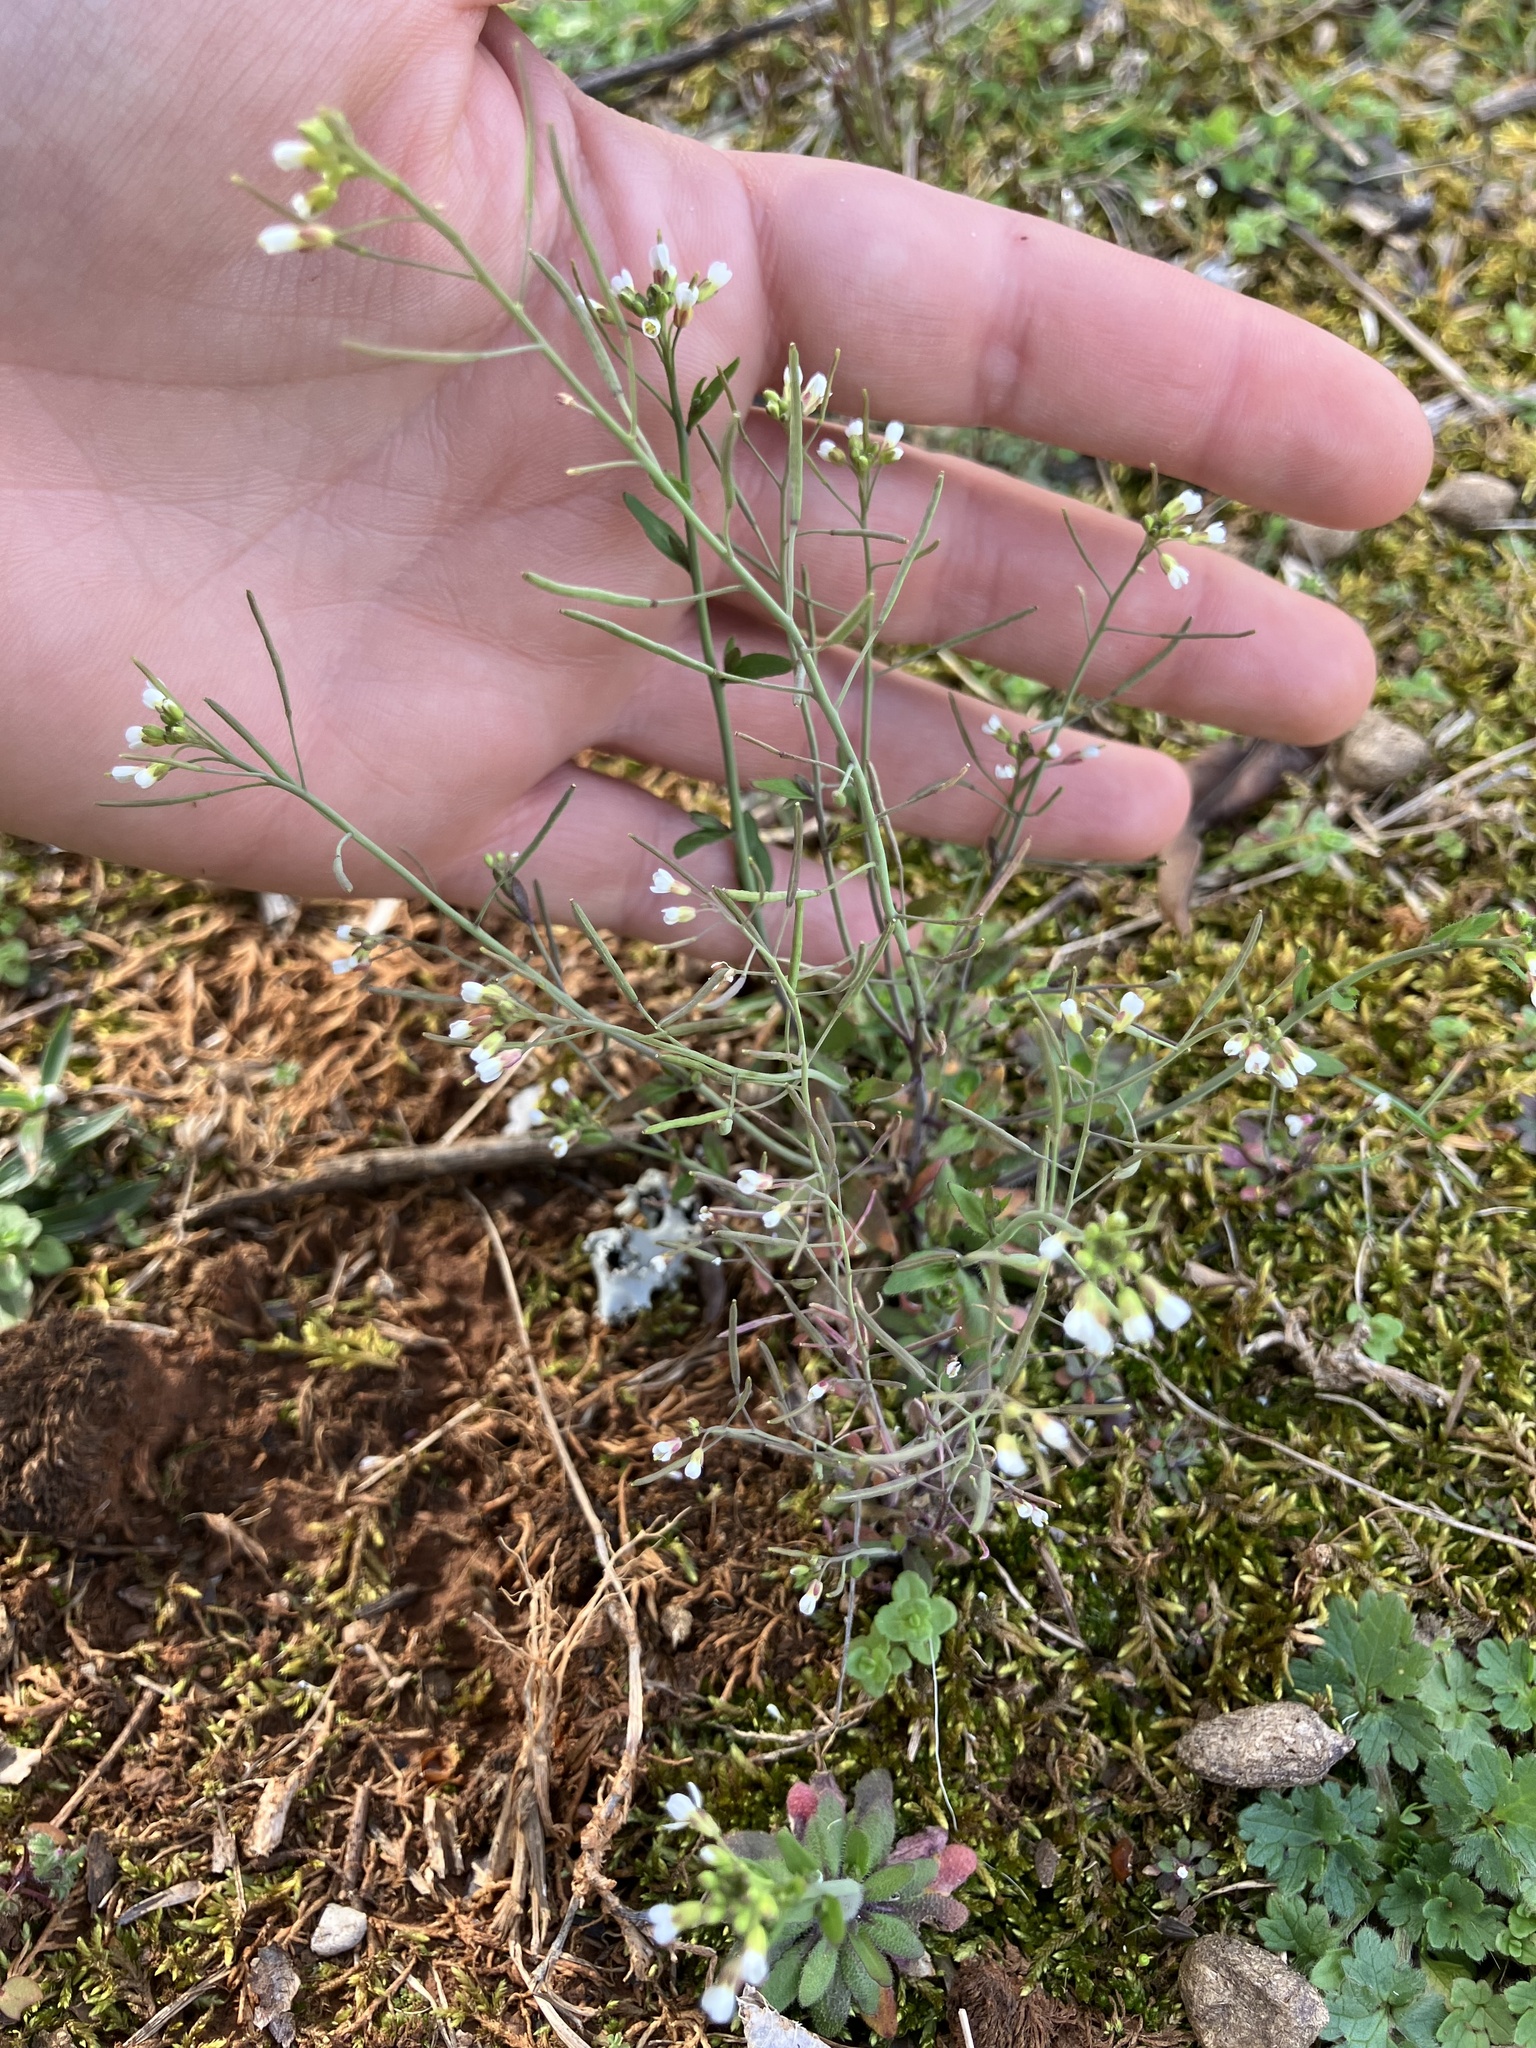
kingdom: Plantae
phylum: Tracheophyta
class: Magnoliopsida
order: Brassicales
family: Brassicaceae
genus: Arabidopsis
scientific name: Arabidopsis thaliana
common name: Thale cress
